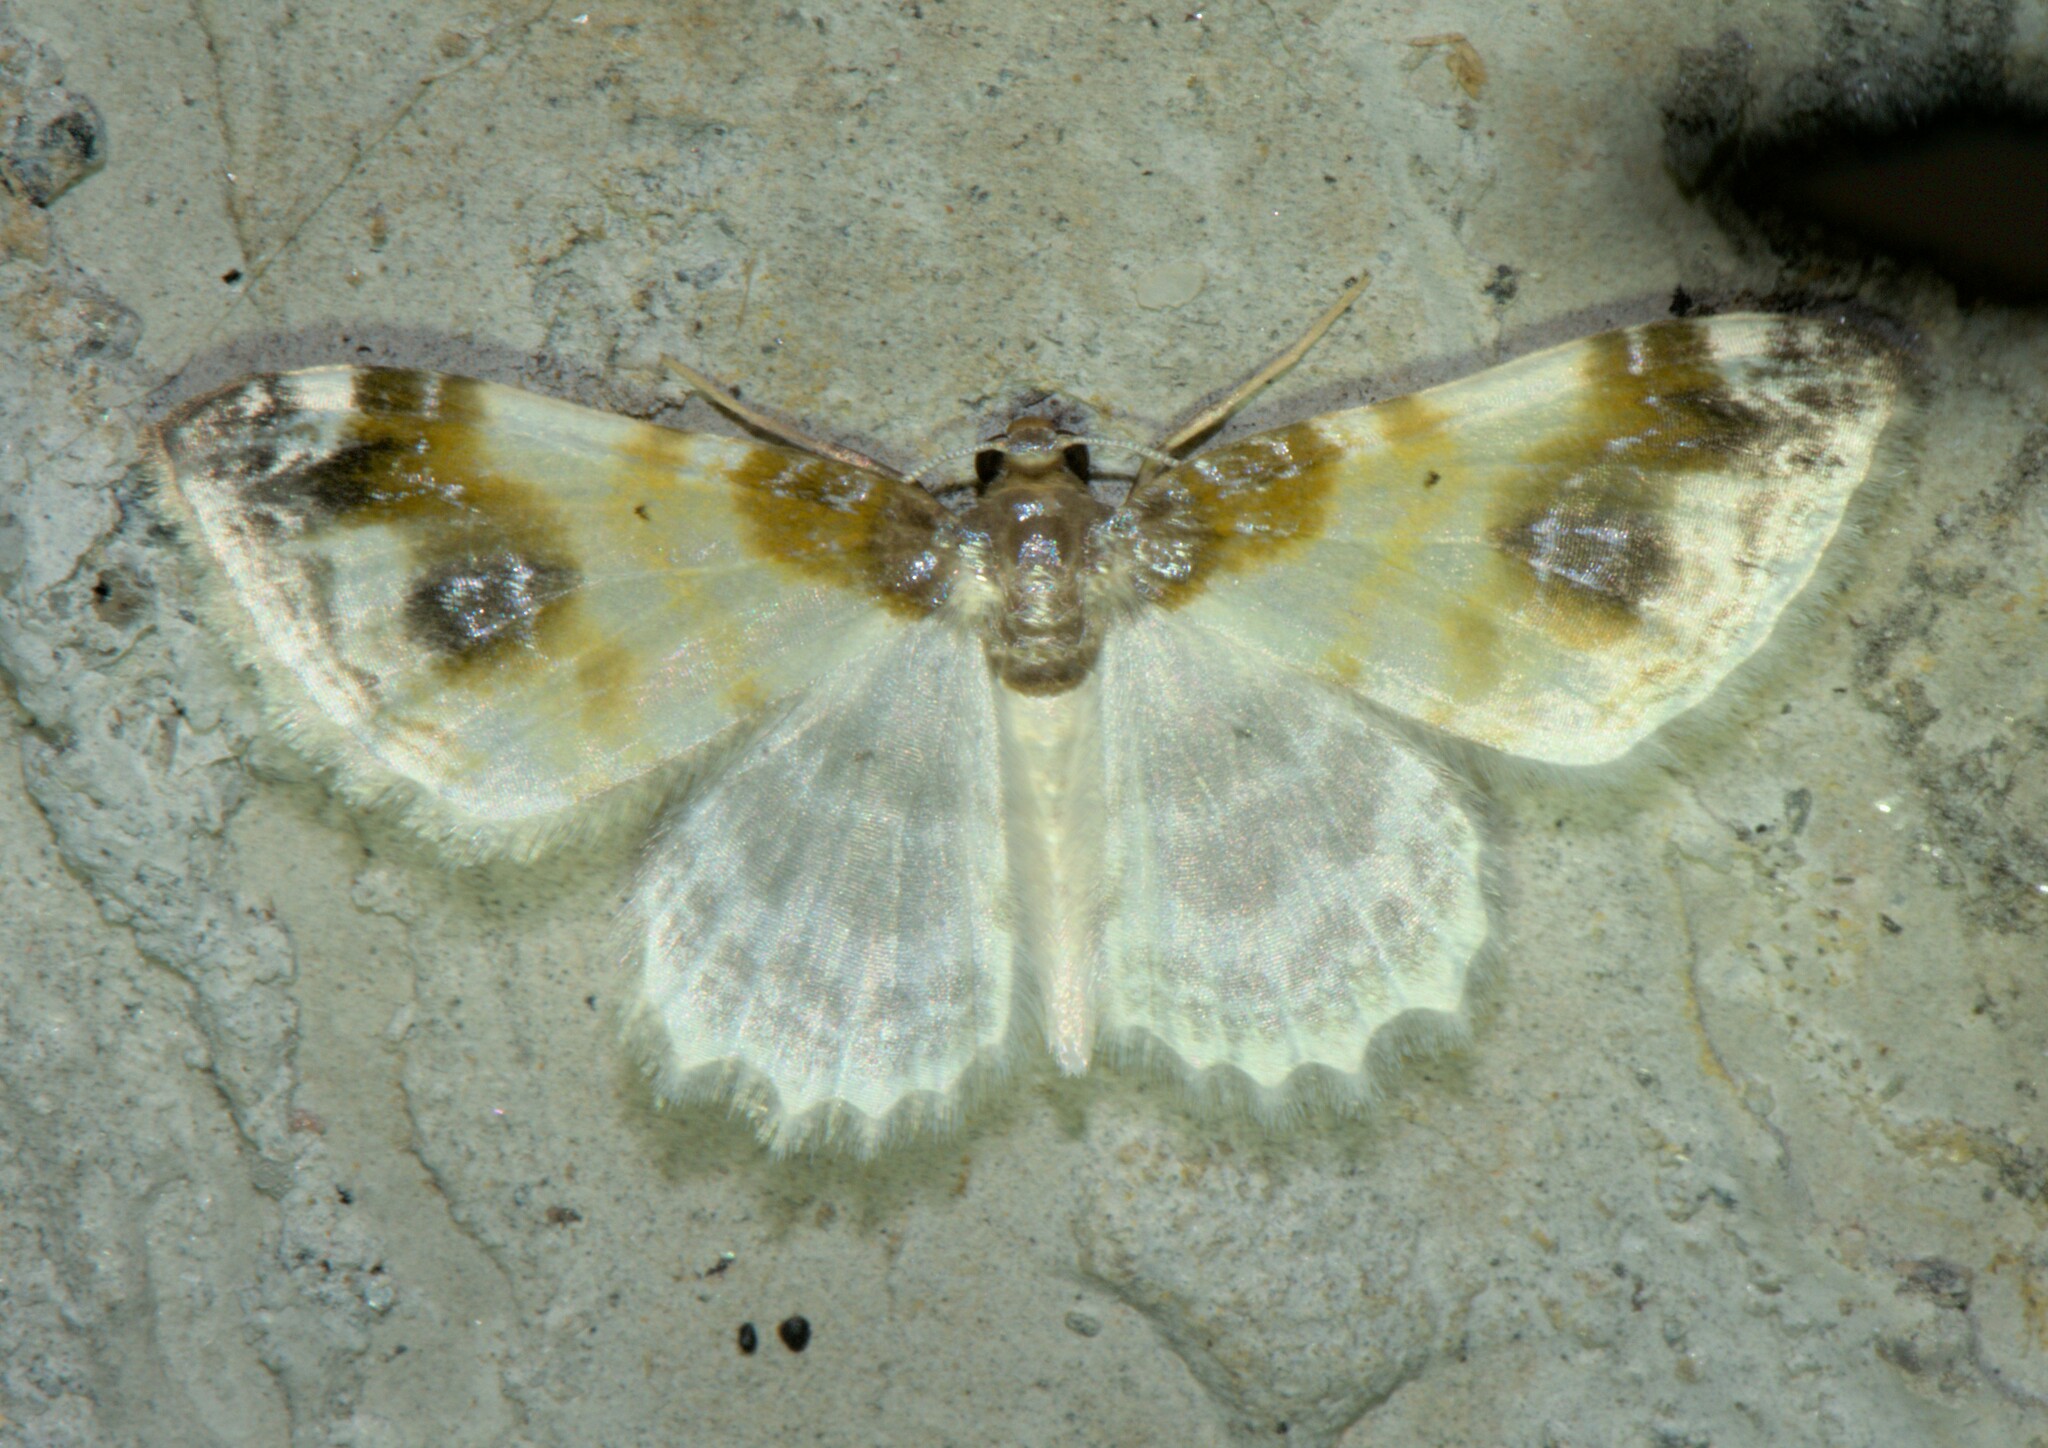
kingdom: Animalia
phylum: Arthropoda
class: Insecta
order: Lepidoptera
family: Geometridae
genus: Agnibesa
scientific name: Agnibesa pictaria
